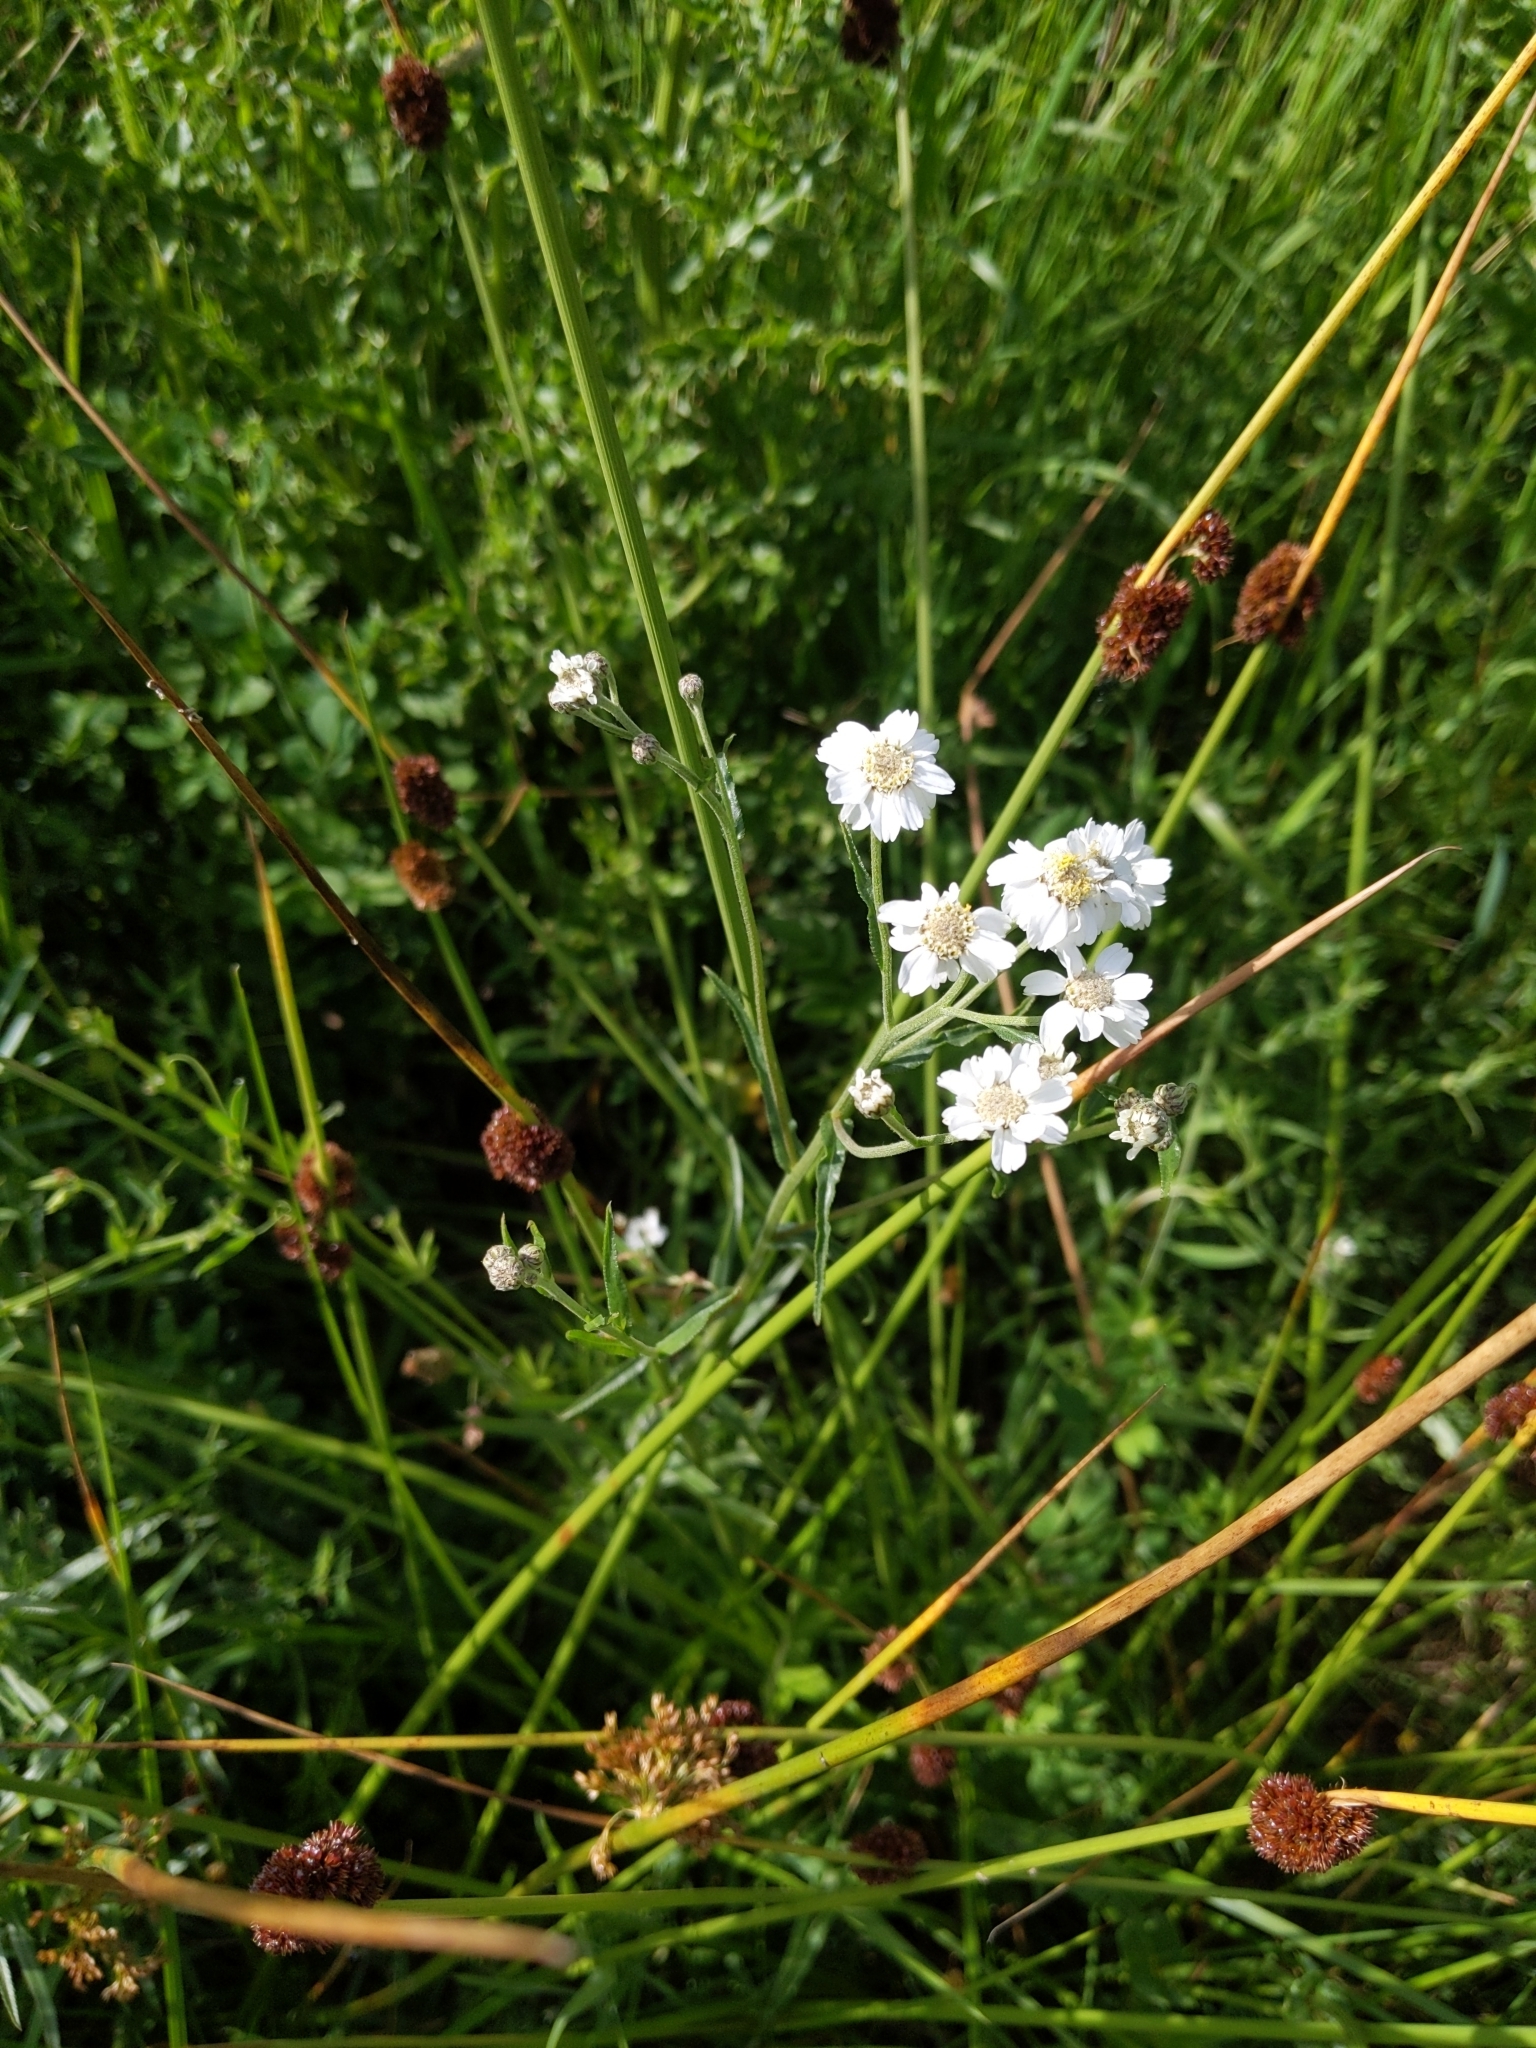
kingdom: Plantae
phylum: Tracheophyta
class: Magnoliopsida
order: Asterales
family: Asteraceae
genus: Achillea
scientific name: Achillea ptarmica
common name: Sneezeweed
